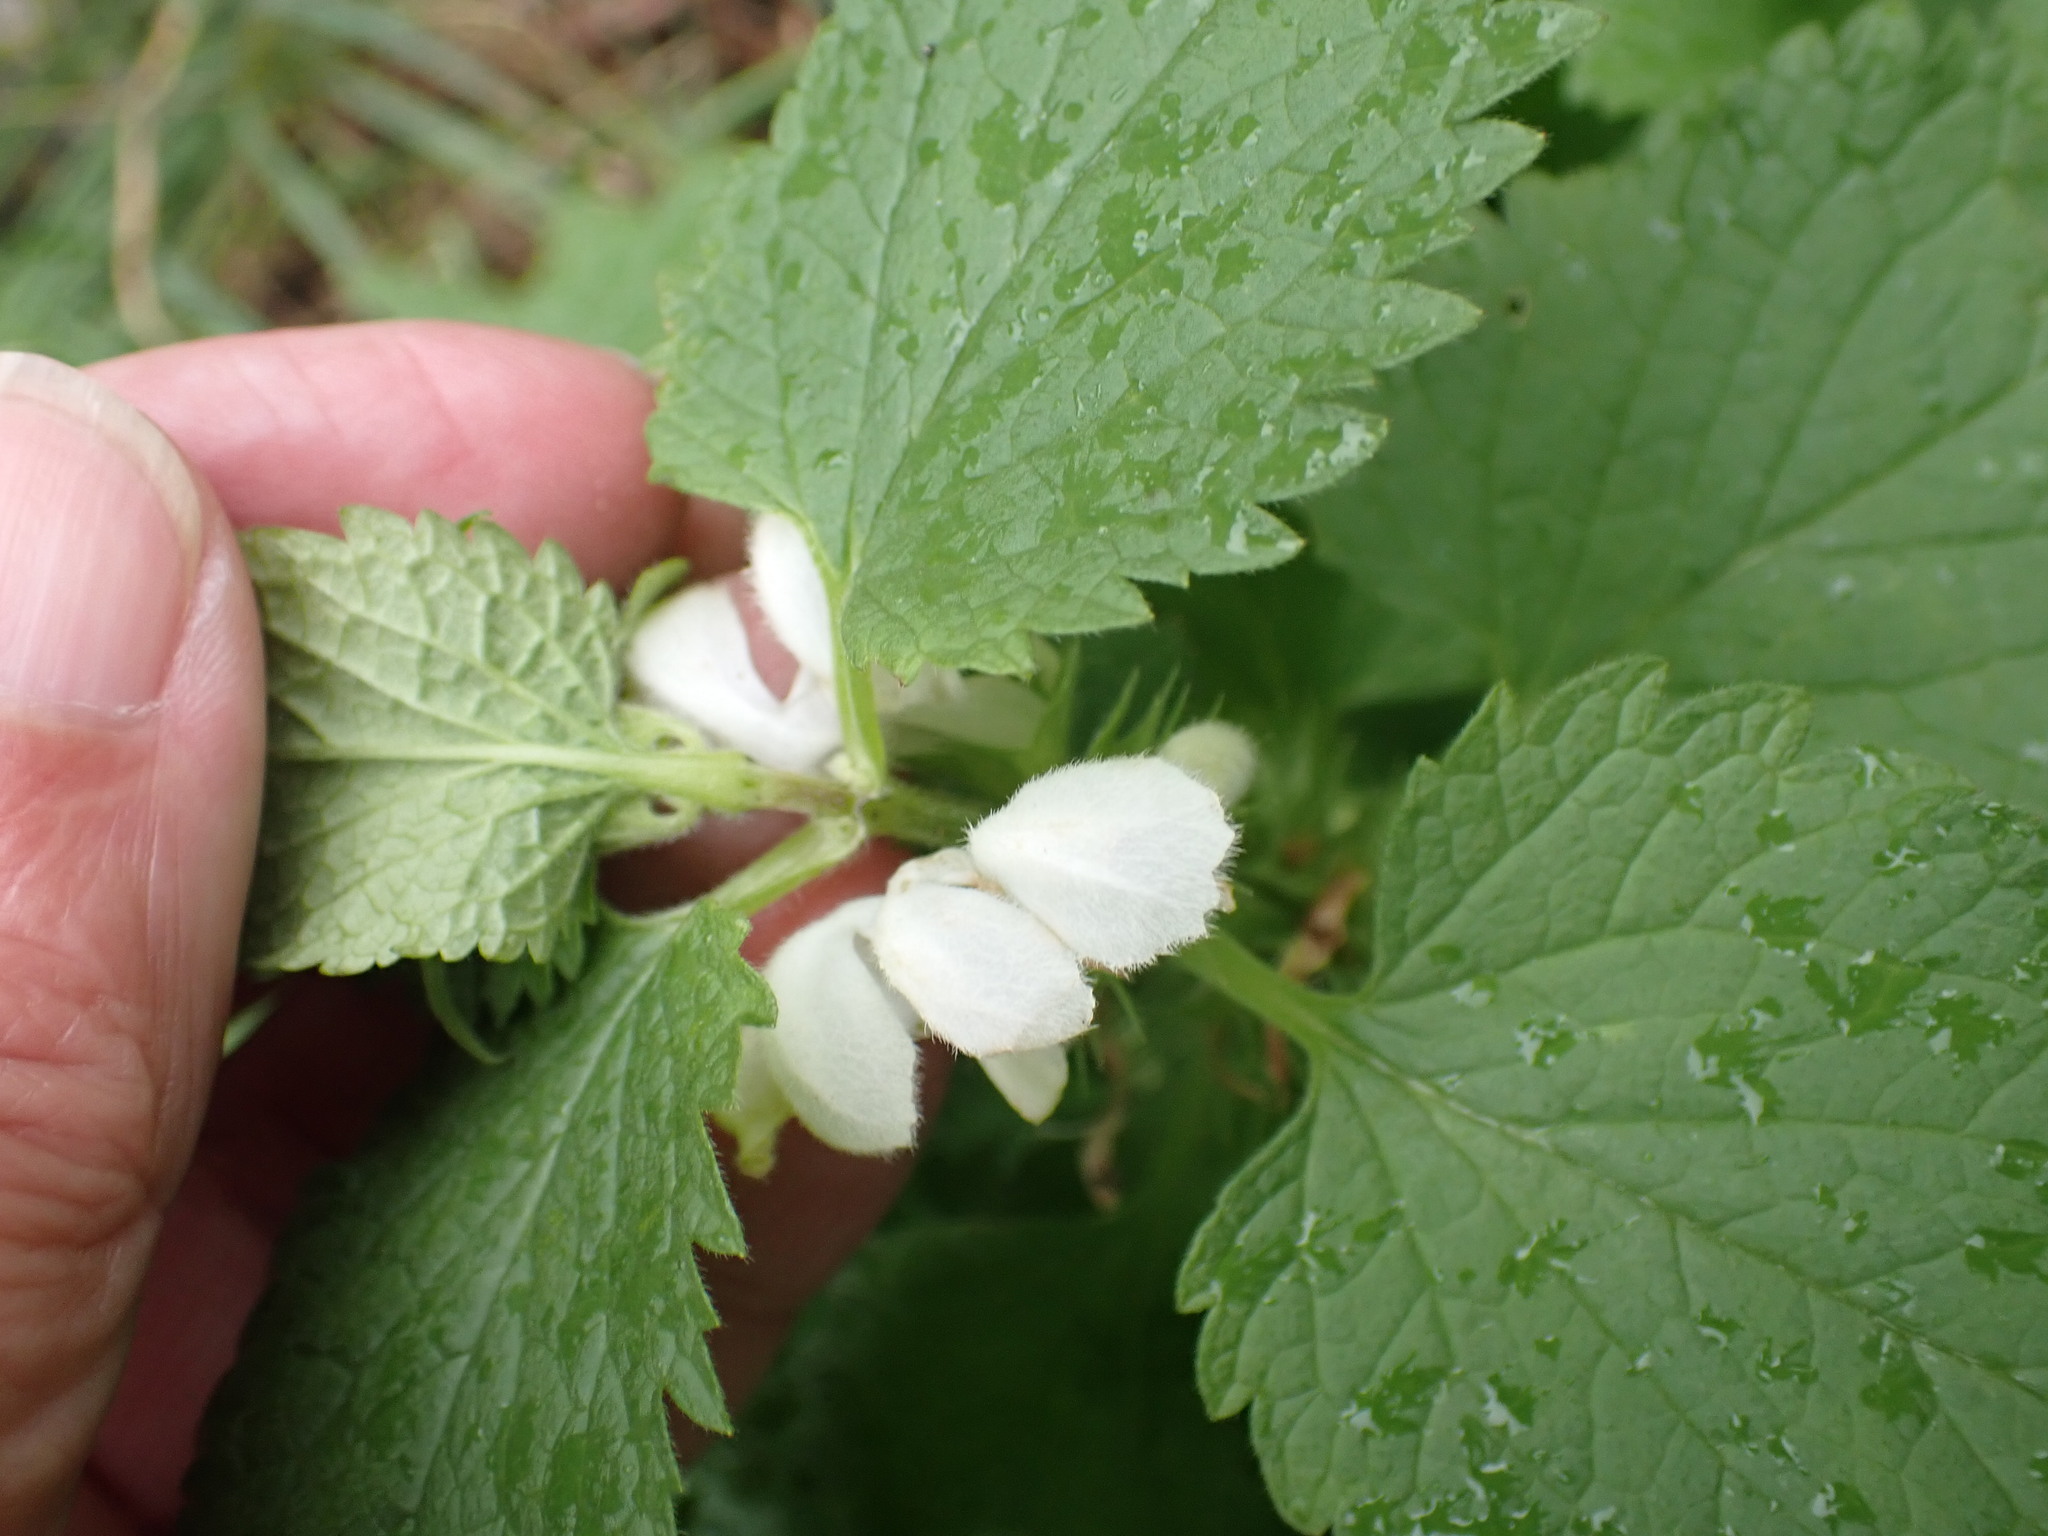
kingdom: Plantae
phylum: Tracheophyta
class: Magnoliopsida
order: Lamiales
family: Lamiaceae
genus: Lamium
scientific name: Lamium album
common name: White dead-nettle
